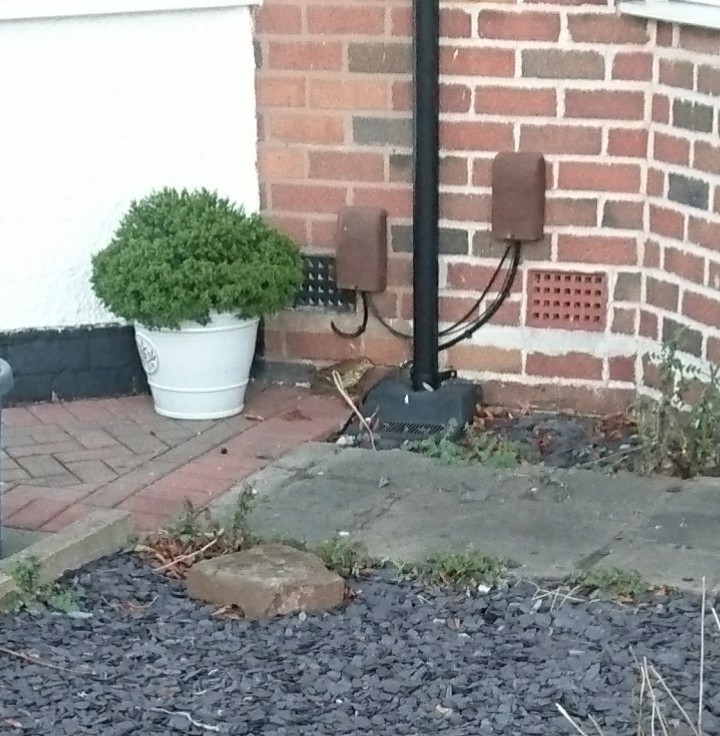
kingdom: Animalia
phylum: Chordata
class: Aves
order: Passeriformes
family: Turdidae
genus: Turdus
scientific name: Turdus philomelos
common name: Song thrush
